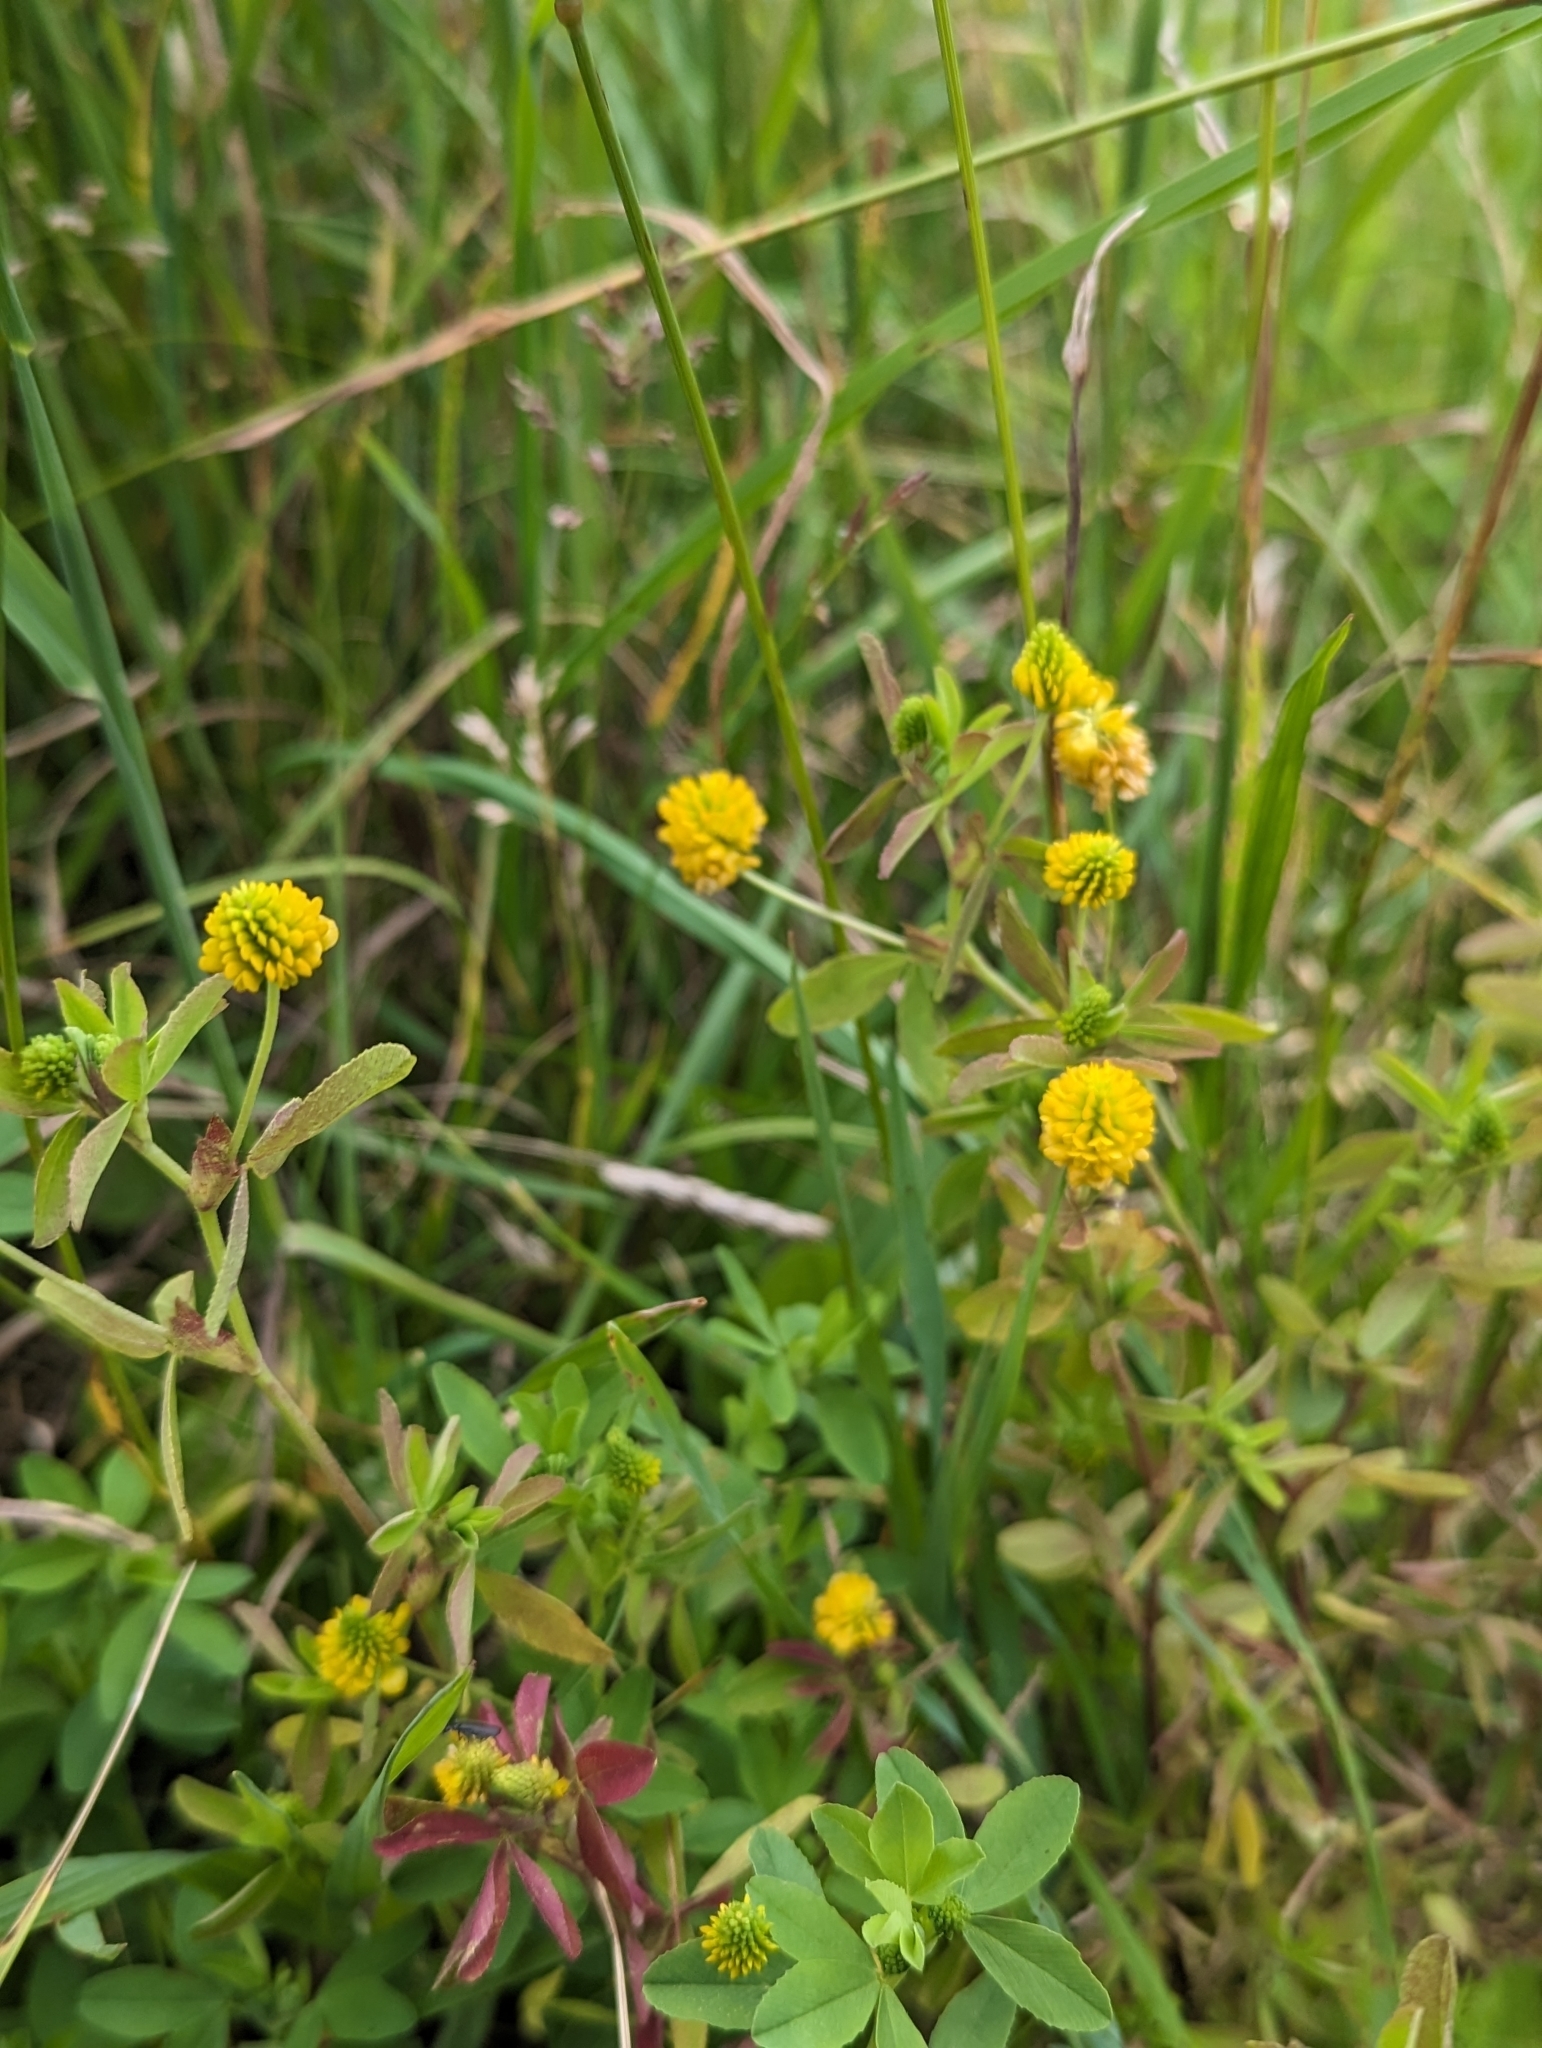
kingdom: Plantae
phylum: Tracheophyta
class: Magnoliopsida
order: Fabales
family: Fabaceae
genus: Trifolium
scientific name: Trifolium aureum
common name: Golden clover
